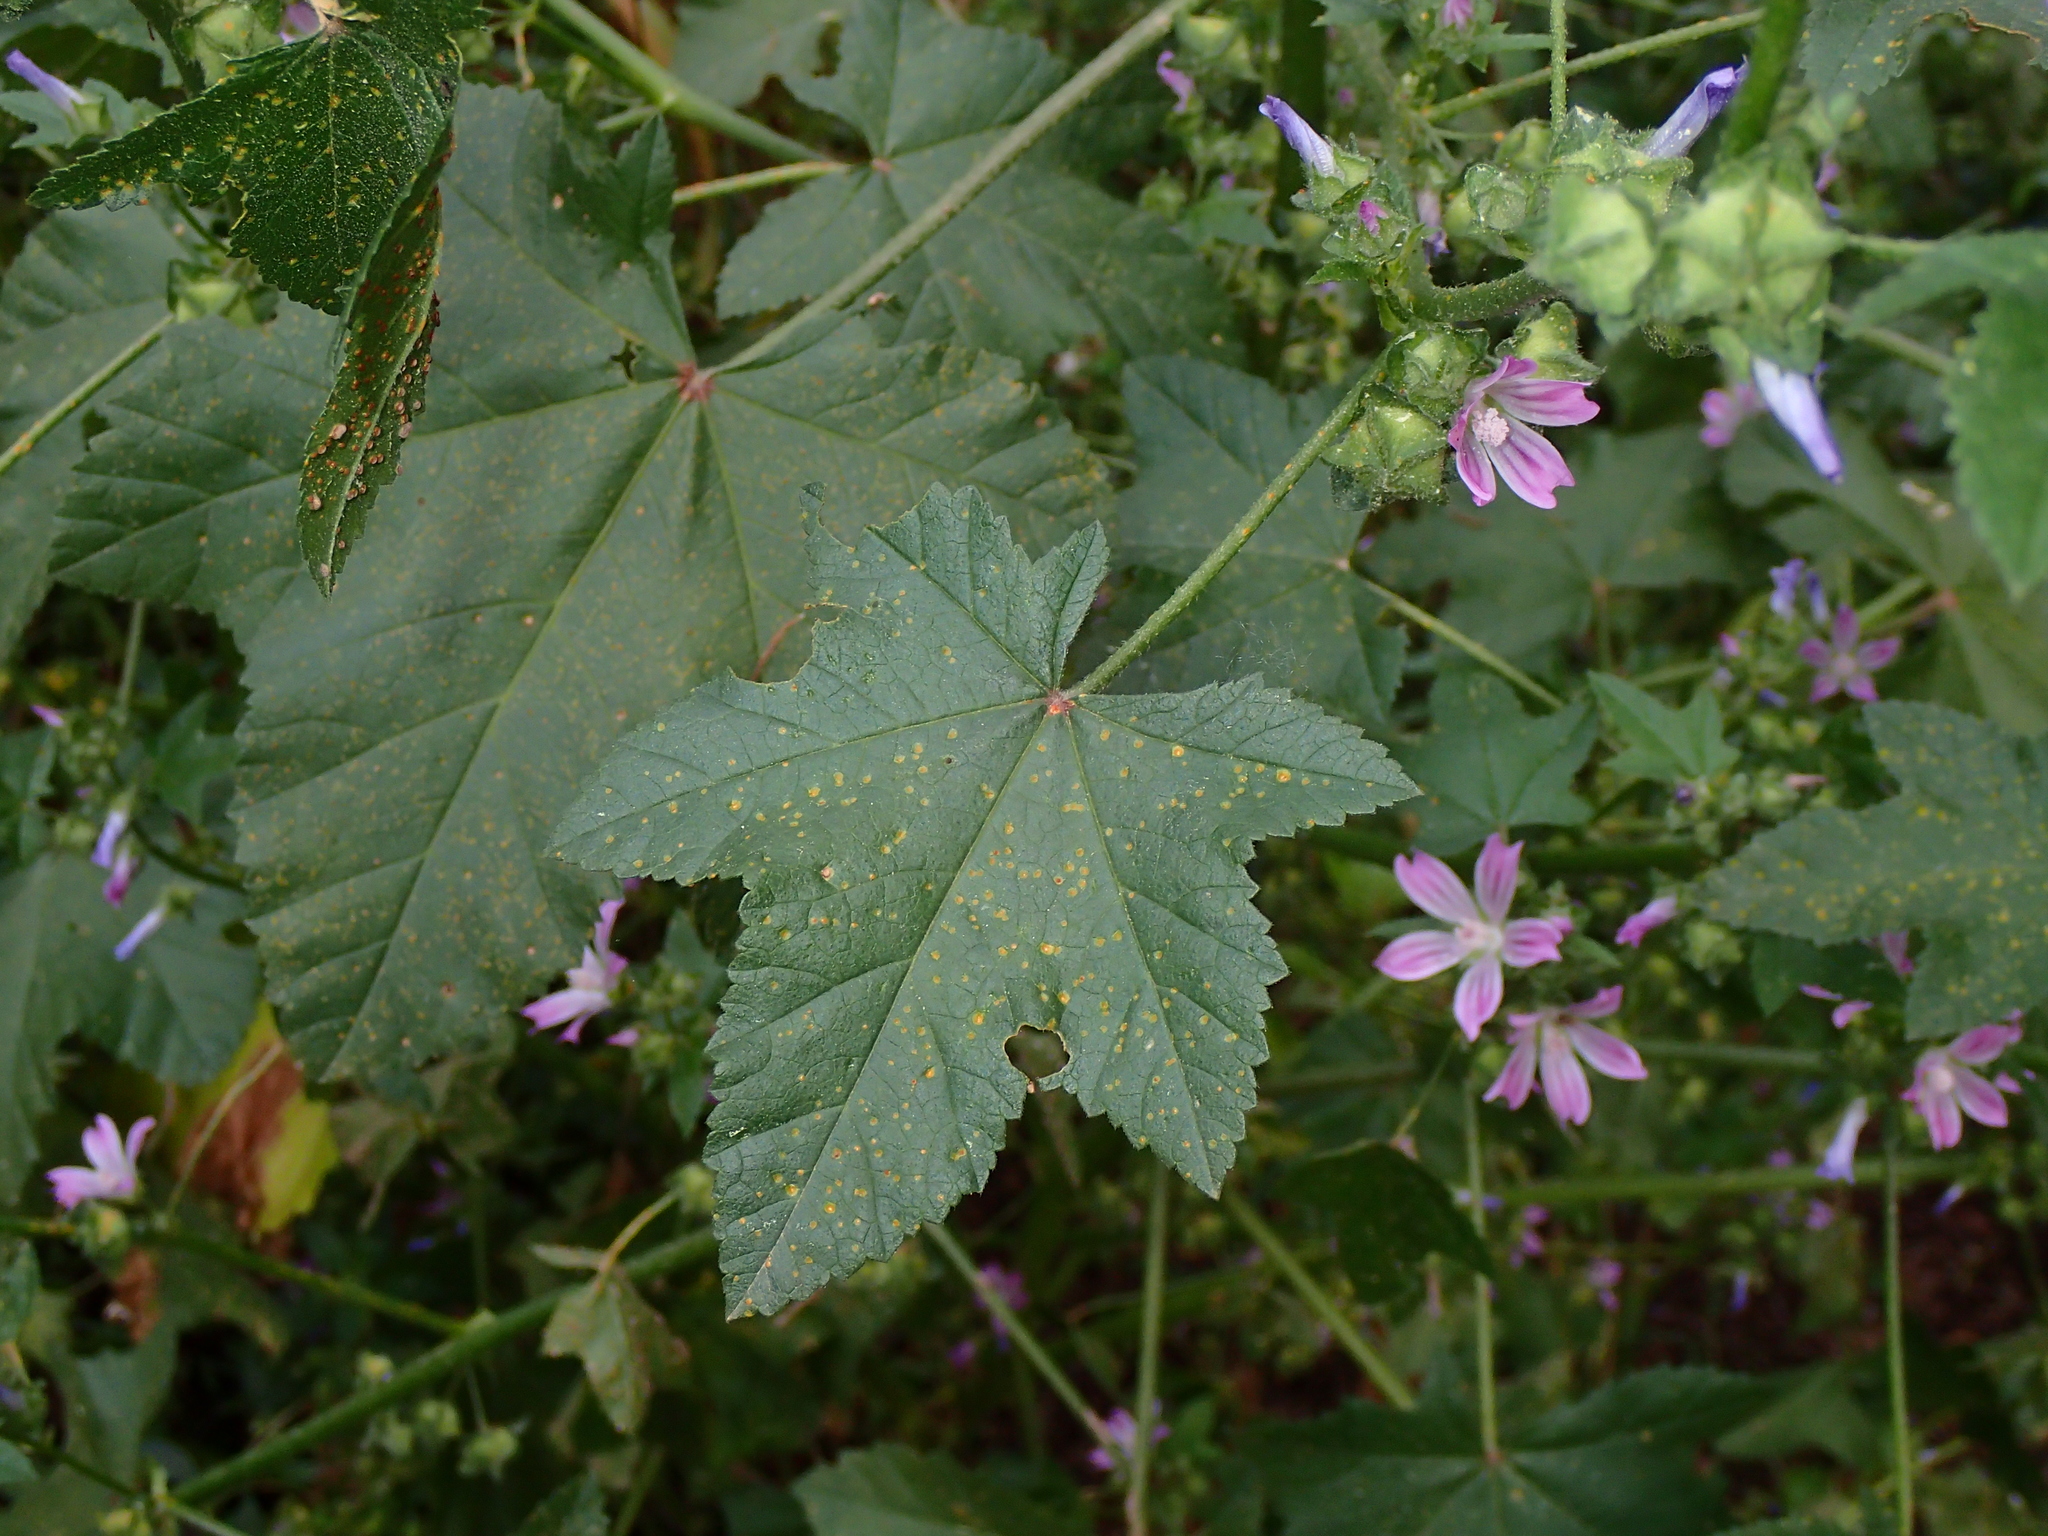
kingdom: Plantae
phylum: Tracheophyta
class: Magnoliopsida
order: Malvales
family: Malvaceae
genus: Malva
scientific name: Malva multiflora
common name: Cheeseweed
